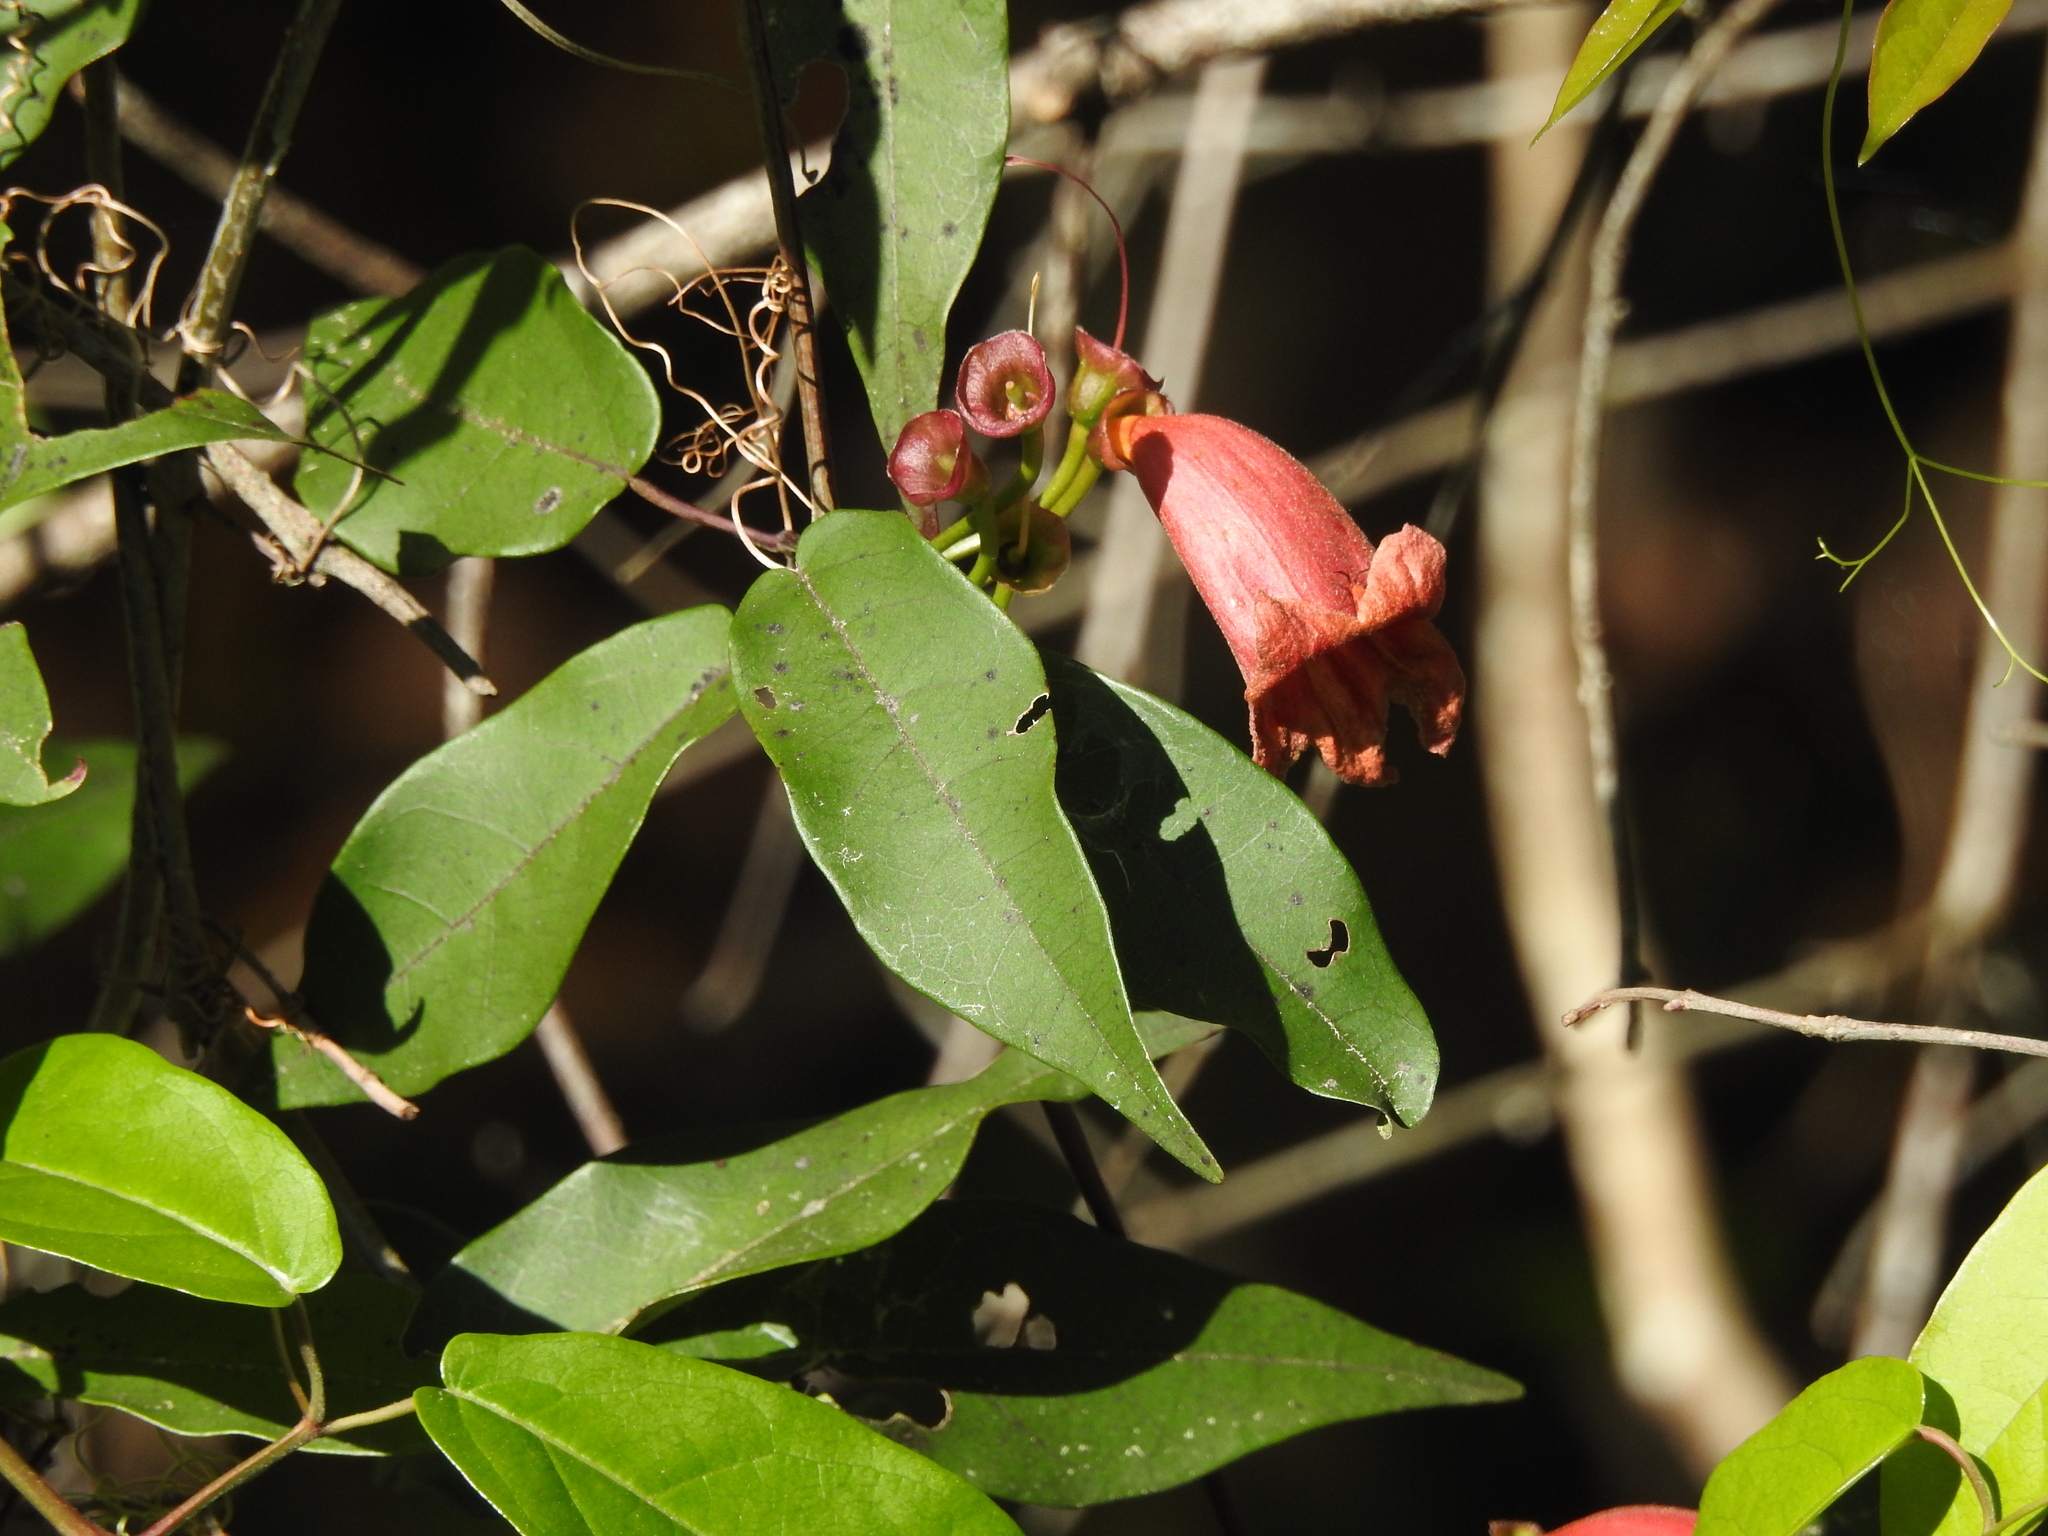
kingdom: Plantae
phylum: Tracheophyta
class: Magnoliopsida
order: Lamiales
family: Bignoniaceae
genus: Bignonia
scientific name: Bignonia capreolata
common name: Crossvine
